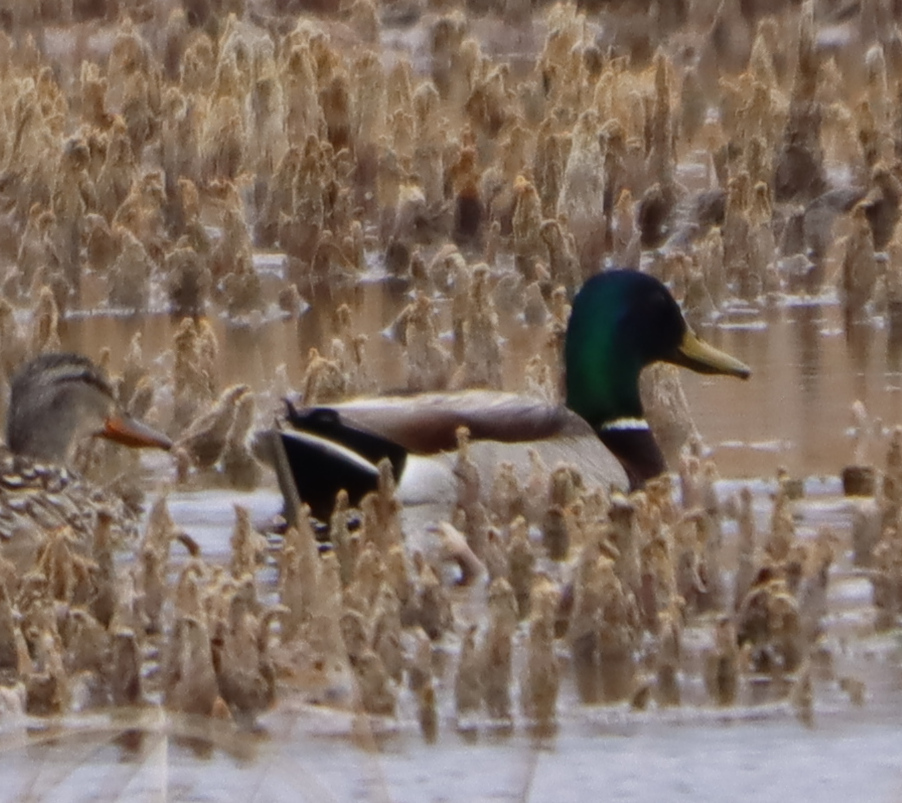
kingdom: Animalia
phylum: Chordata
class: Aves
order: Anseriformes
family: Anatidae
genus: Anas
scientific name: Anas platyrhynchos
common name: Mallard
